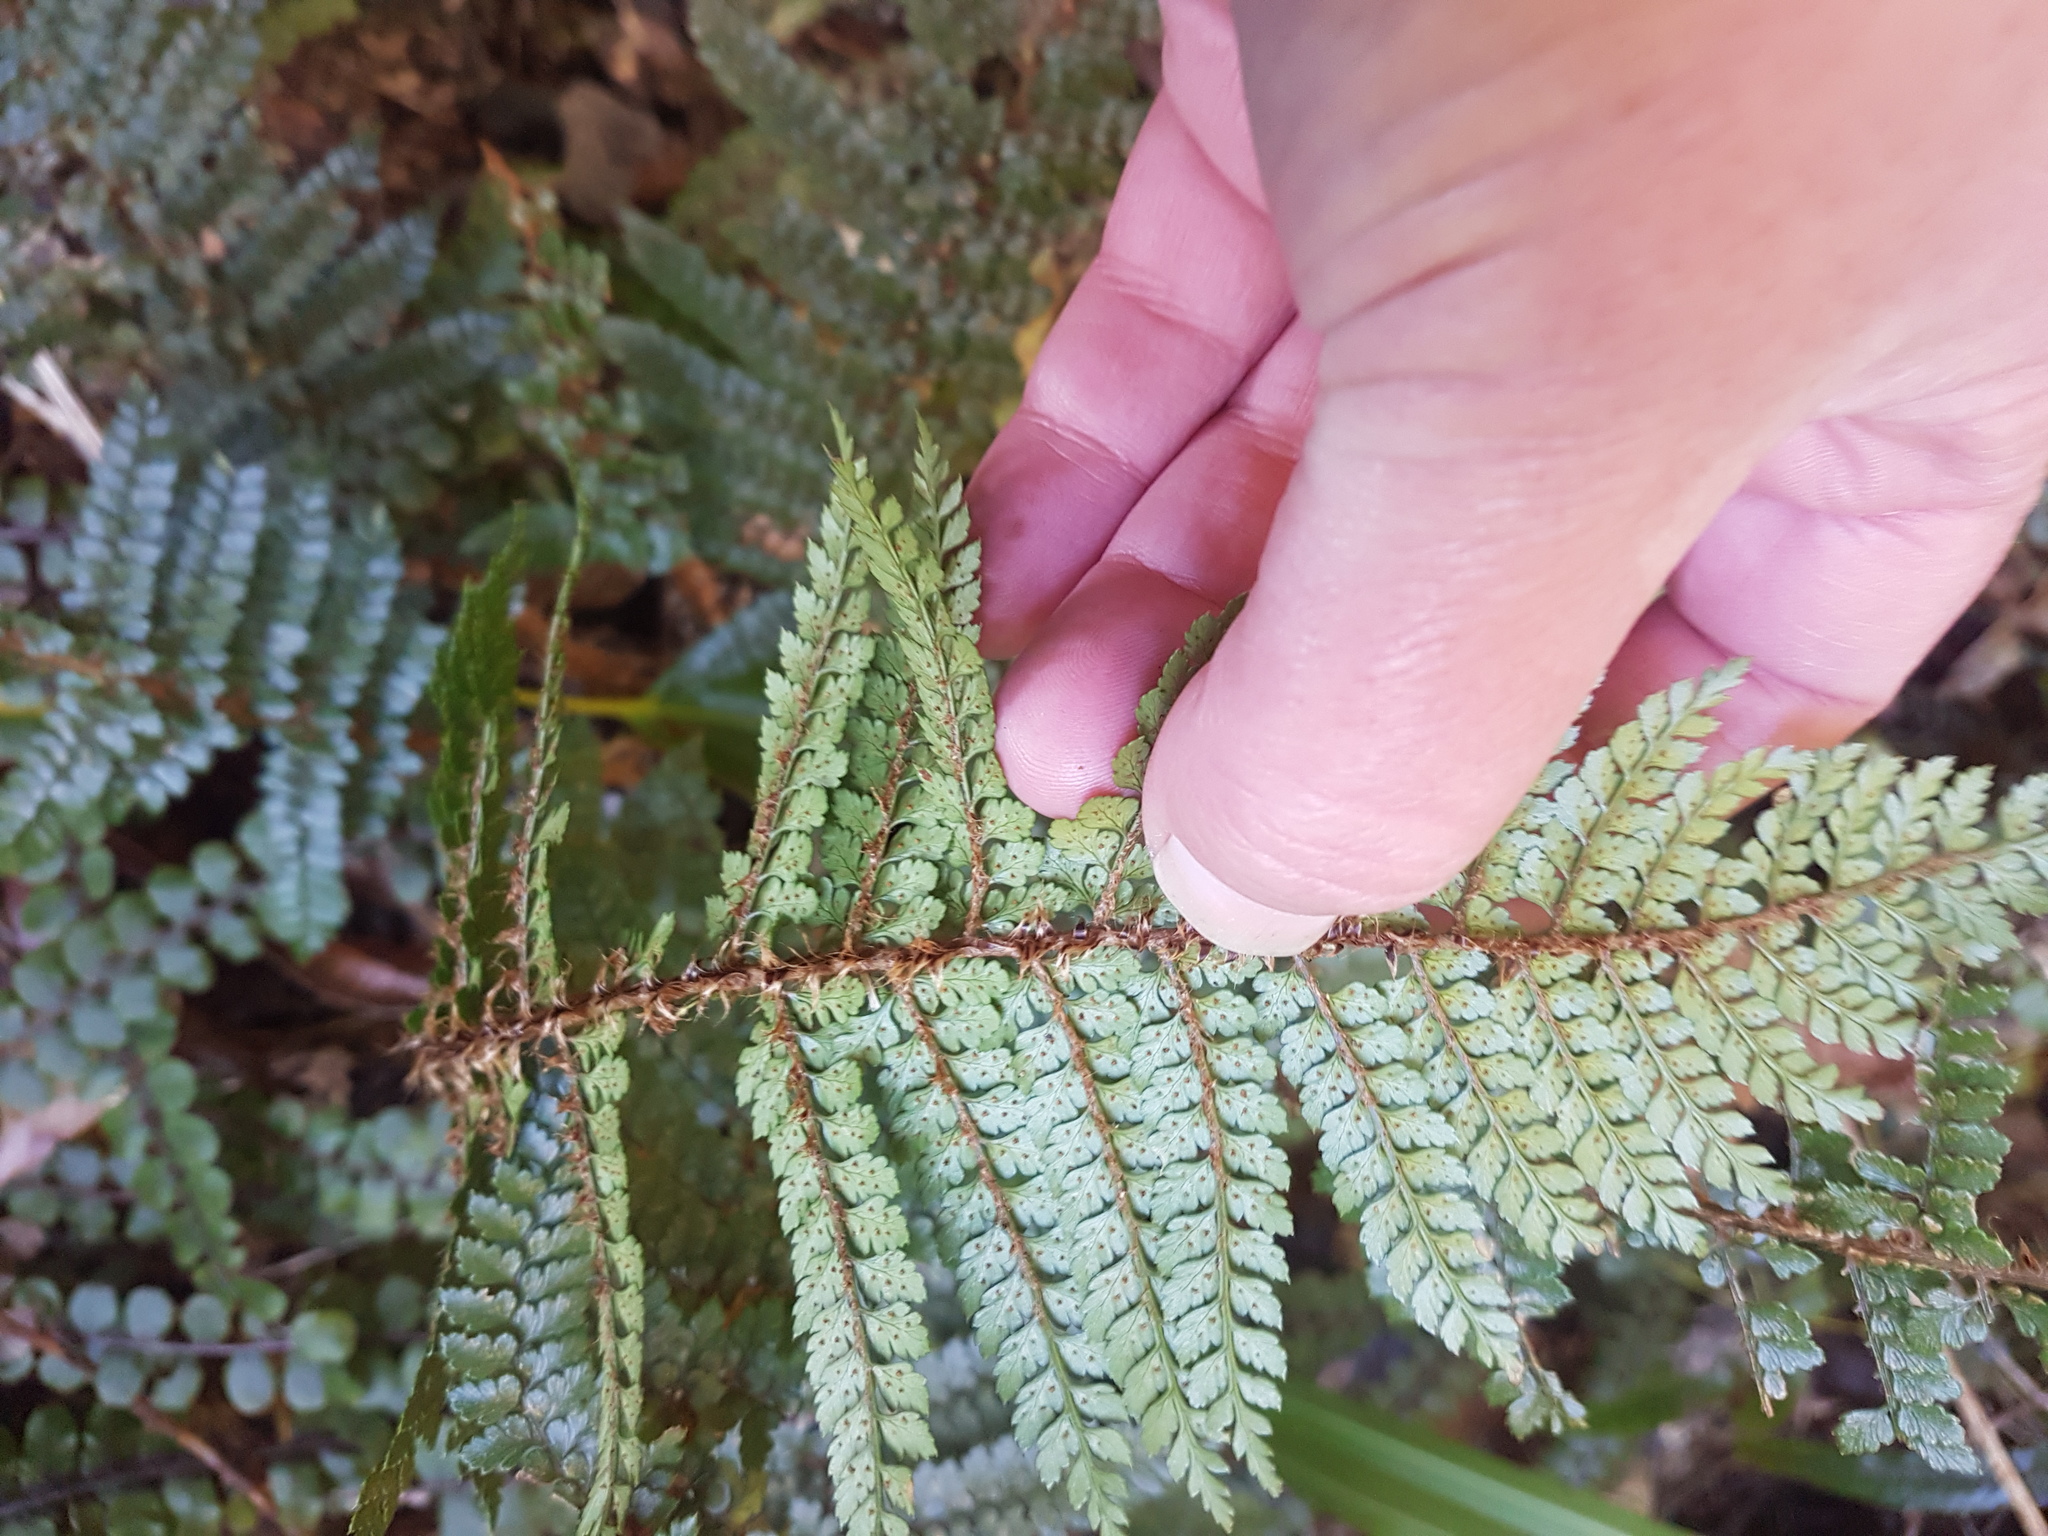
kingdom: Plantae
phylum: Tracheophyta
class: Polypodiopsida
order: Polypodiales
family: Dryopteridaceae
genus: Polystichum
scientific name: Polystichum vestitum
